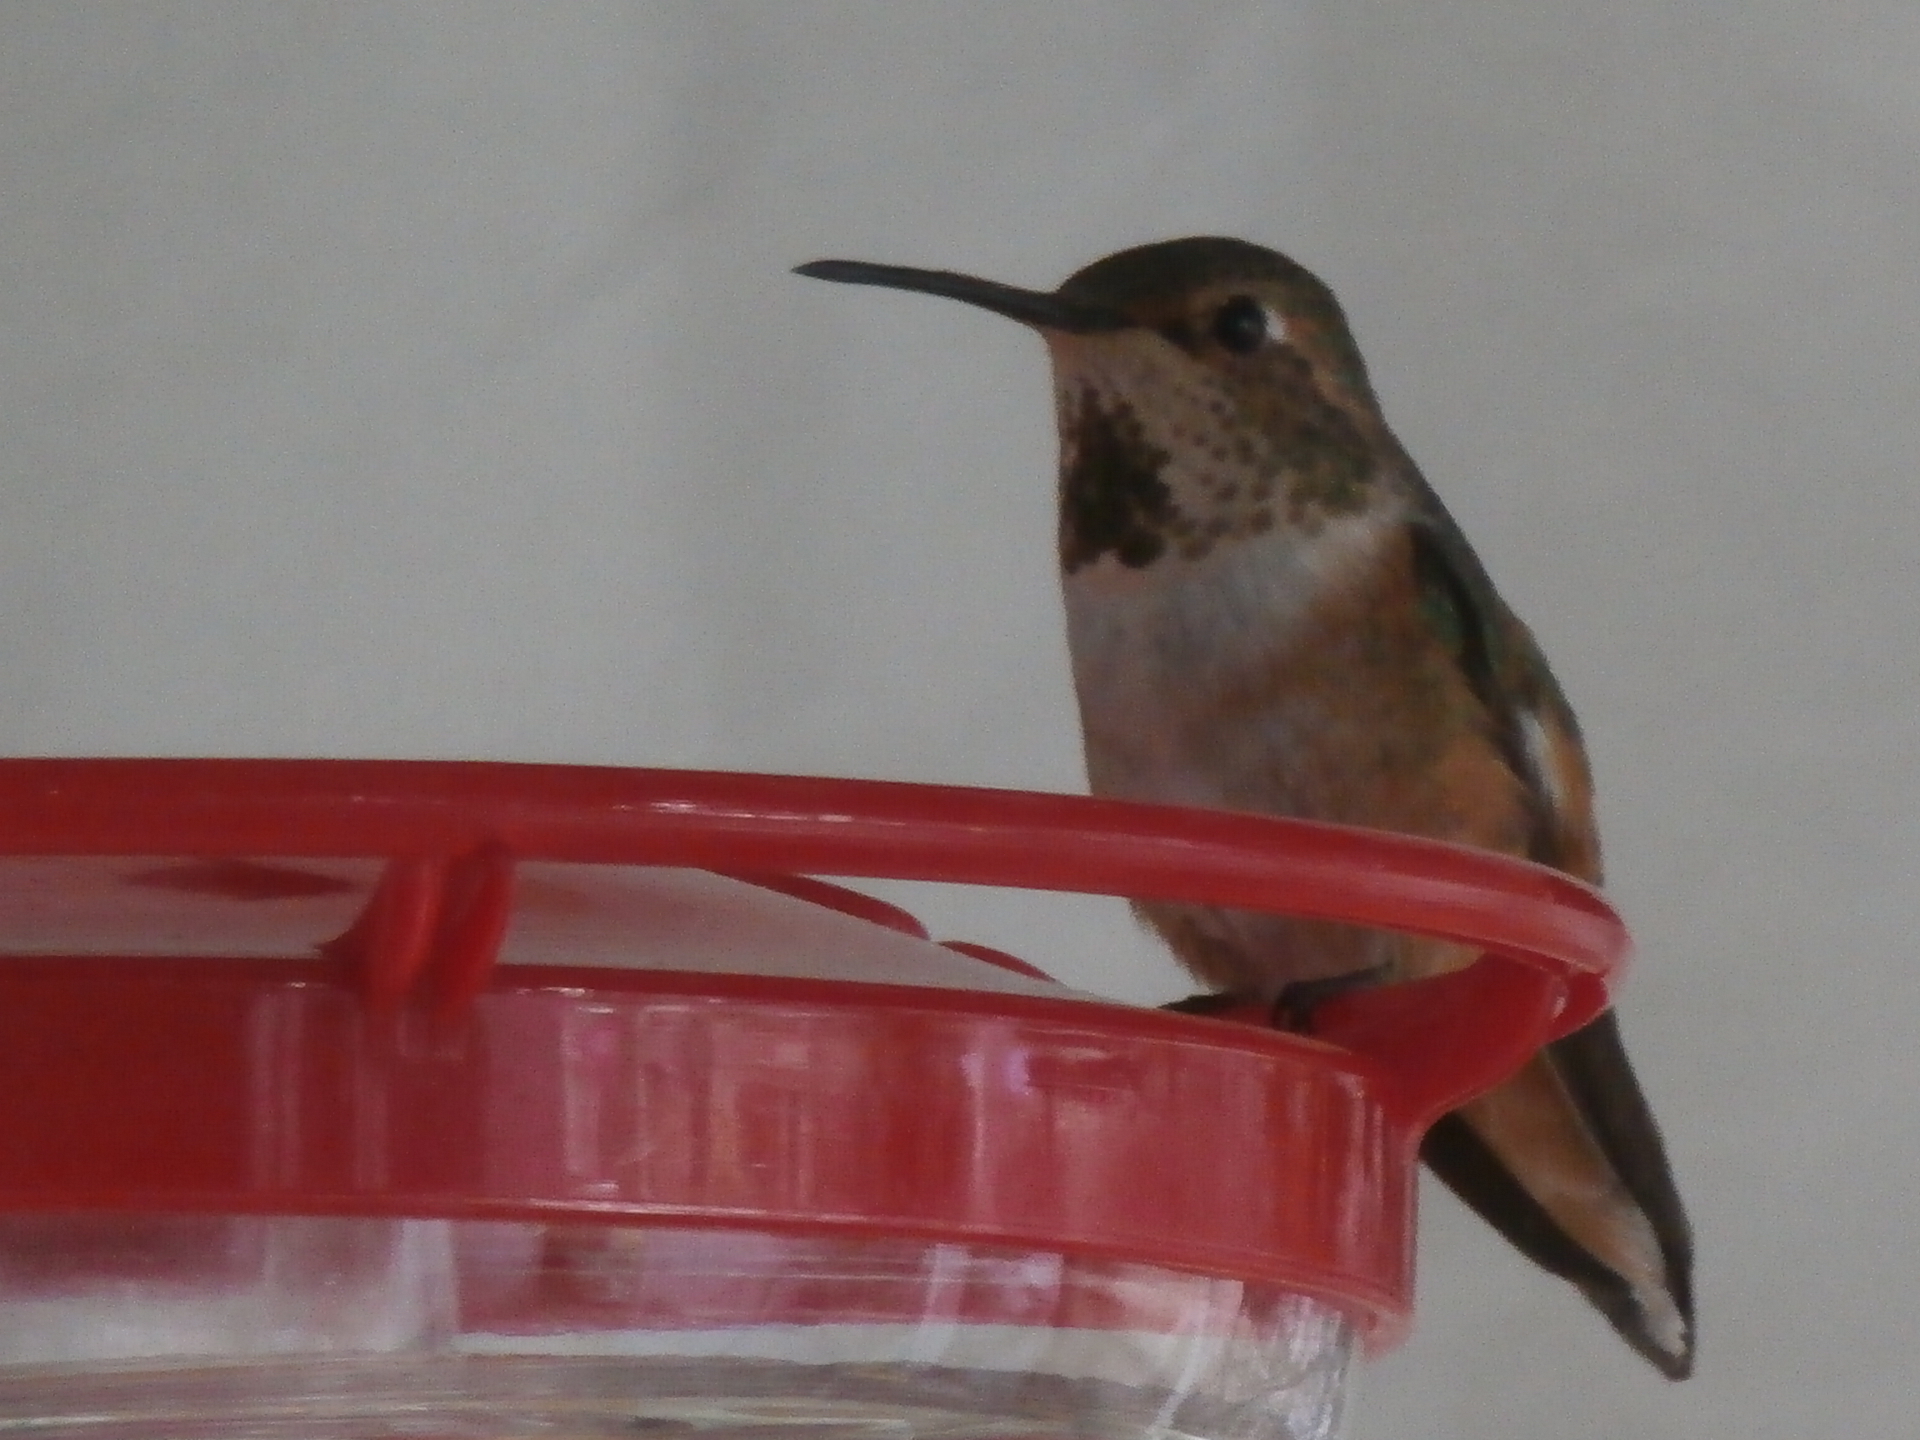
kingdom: Animalia
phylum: Chordata
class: Aves
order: Apodiformes
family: Trochilidae
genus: Selasphorus
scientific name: Selasphorus sasin
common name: Allen's hummingbird
